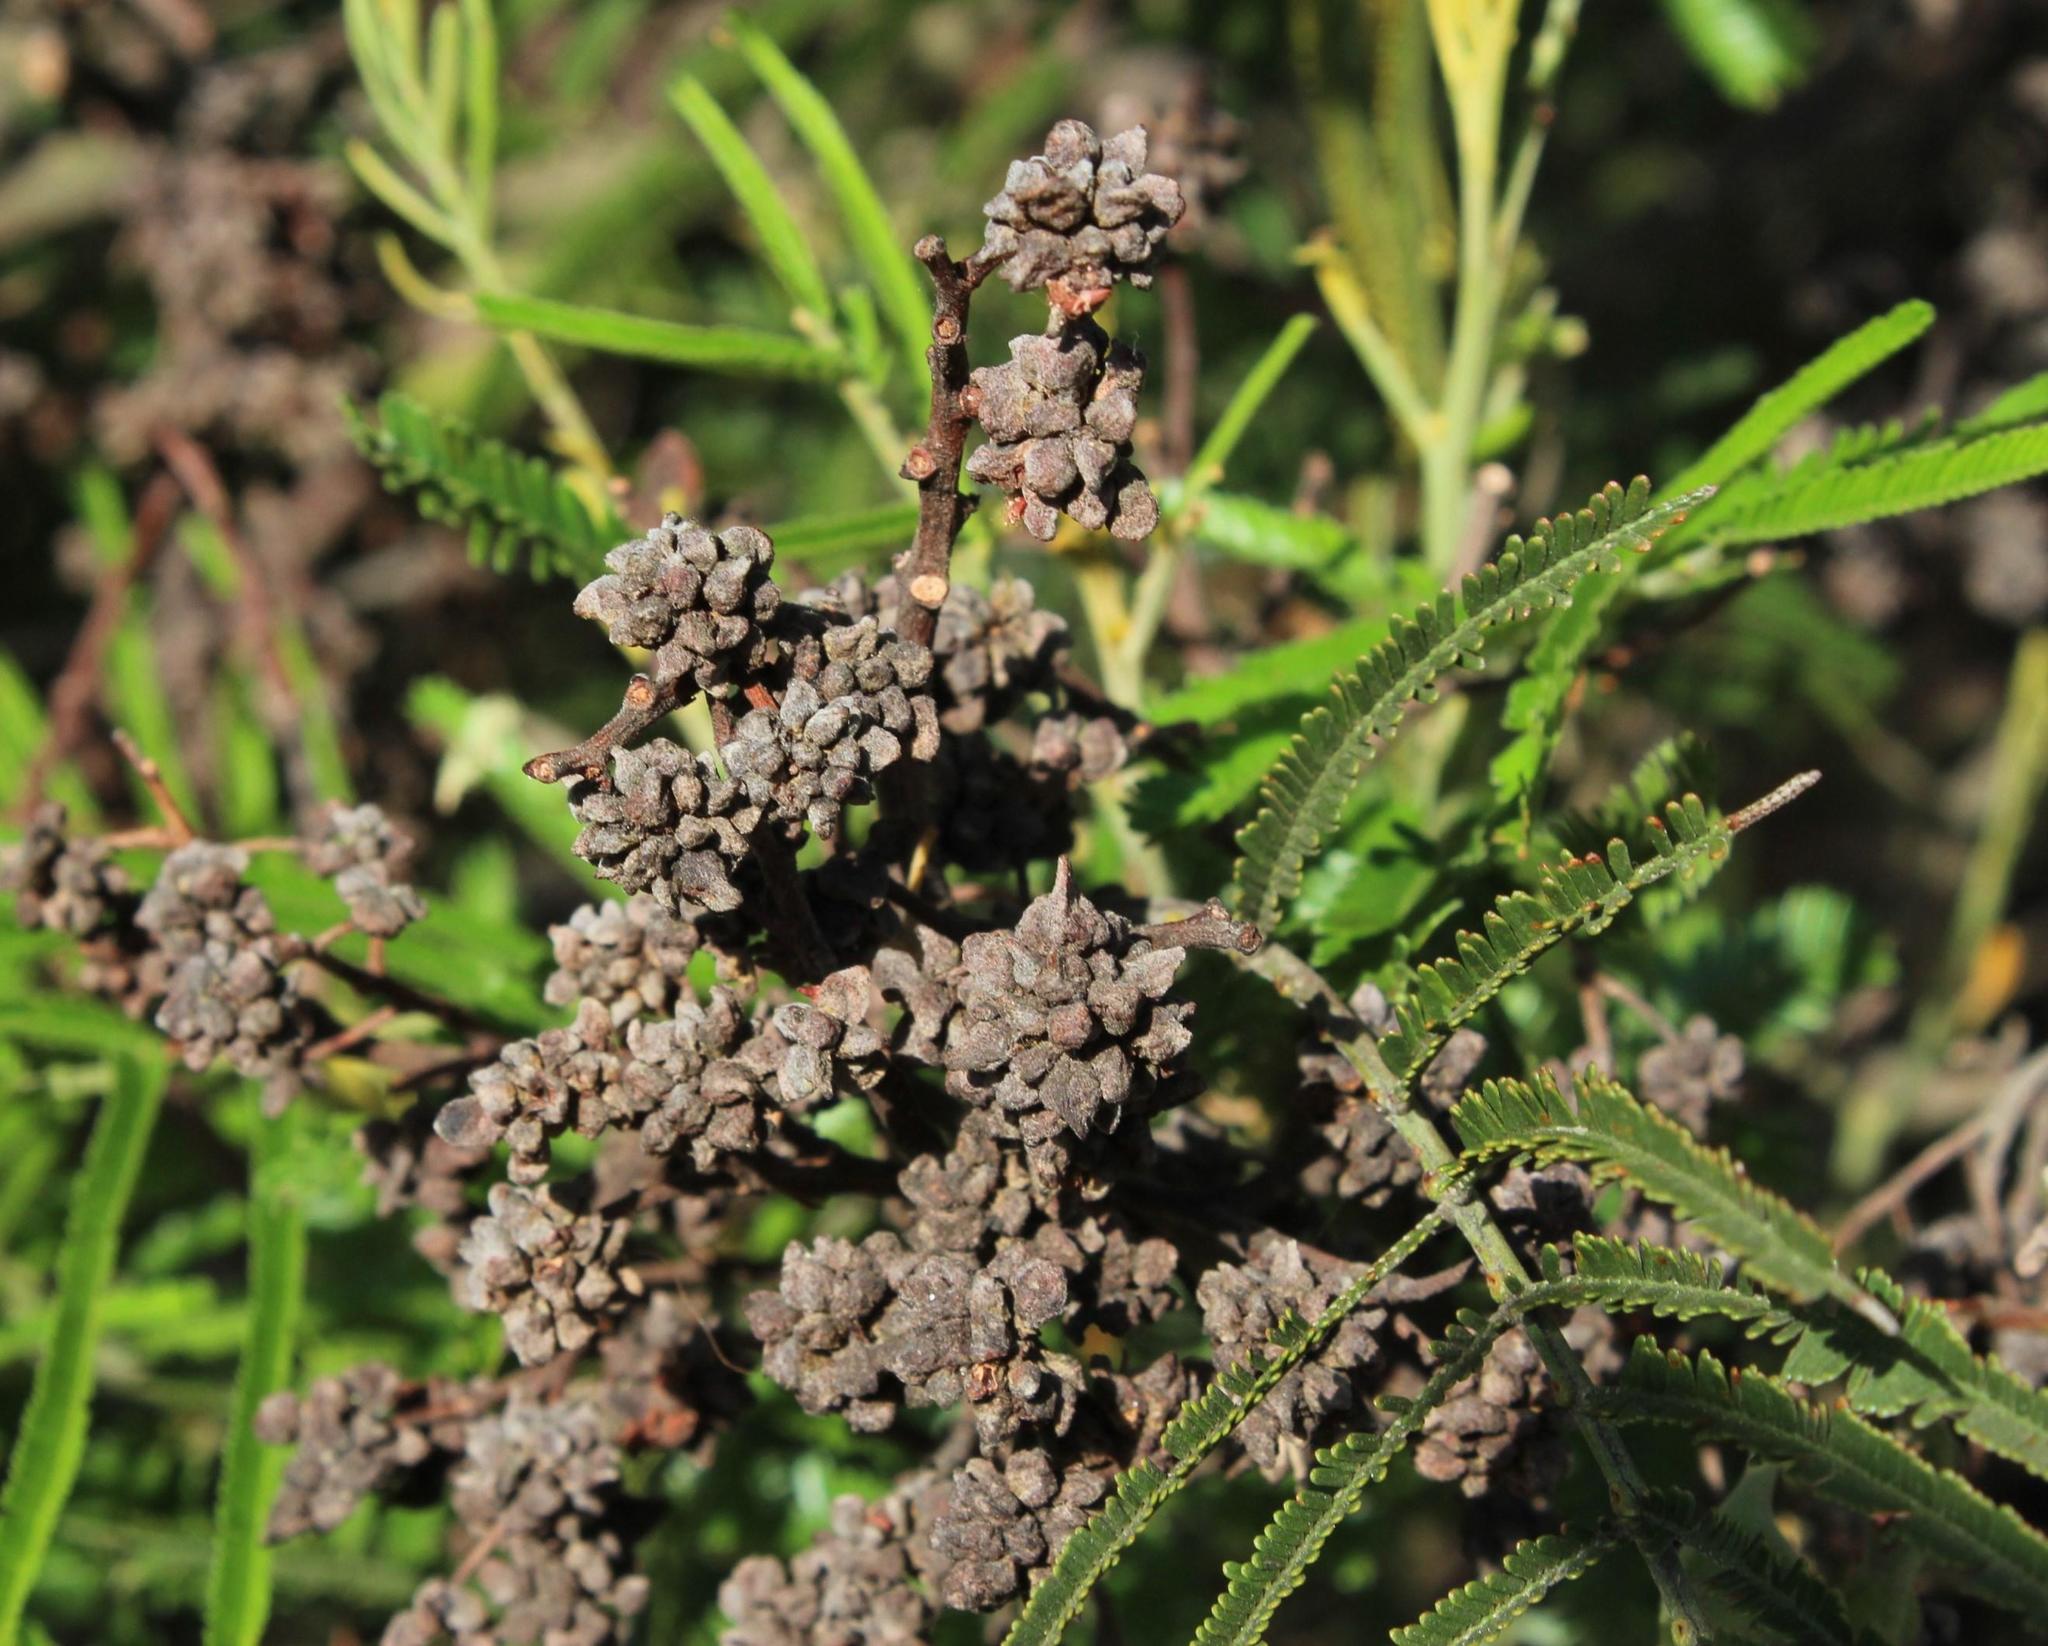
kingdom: Animalia
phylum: Arthropoda
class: Insecta
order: Diptera
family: Cecidomyiidae
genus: Dasineura
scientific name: Dasineura rubiformis
